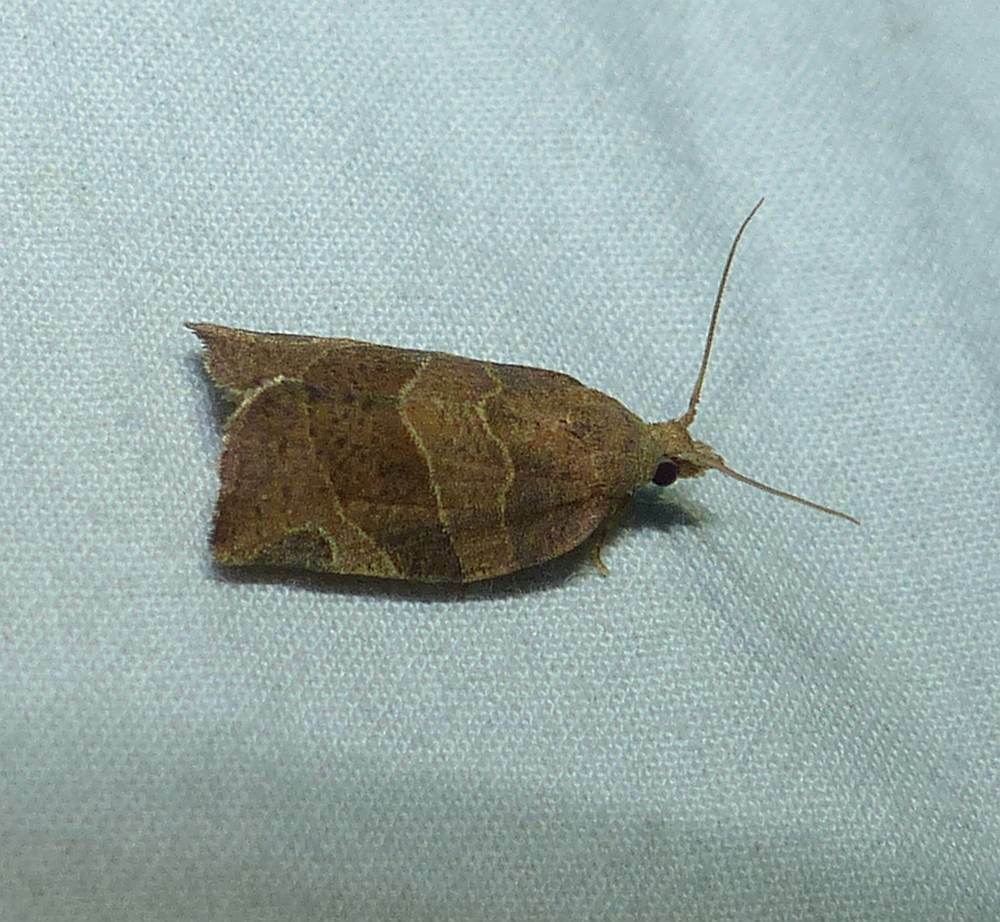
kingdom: Animalia
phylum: Arthropoda
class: Insecta
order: Lepidoptera
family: Tortricidae
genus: Pandemis
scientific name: Pandemis limitata
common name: Three-lined leafroller moth
